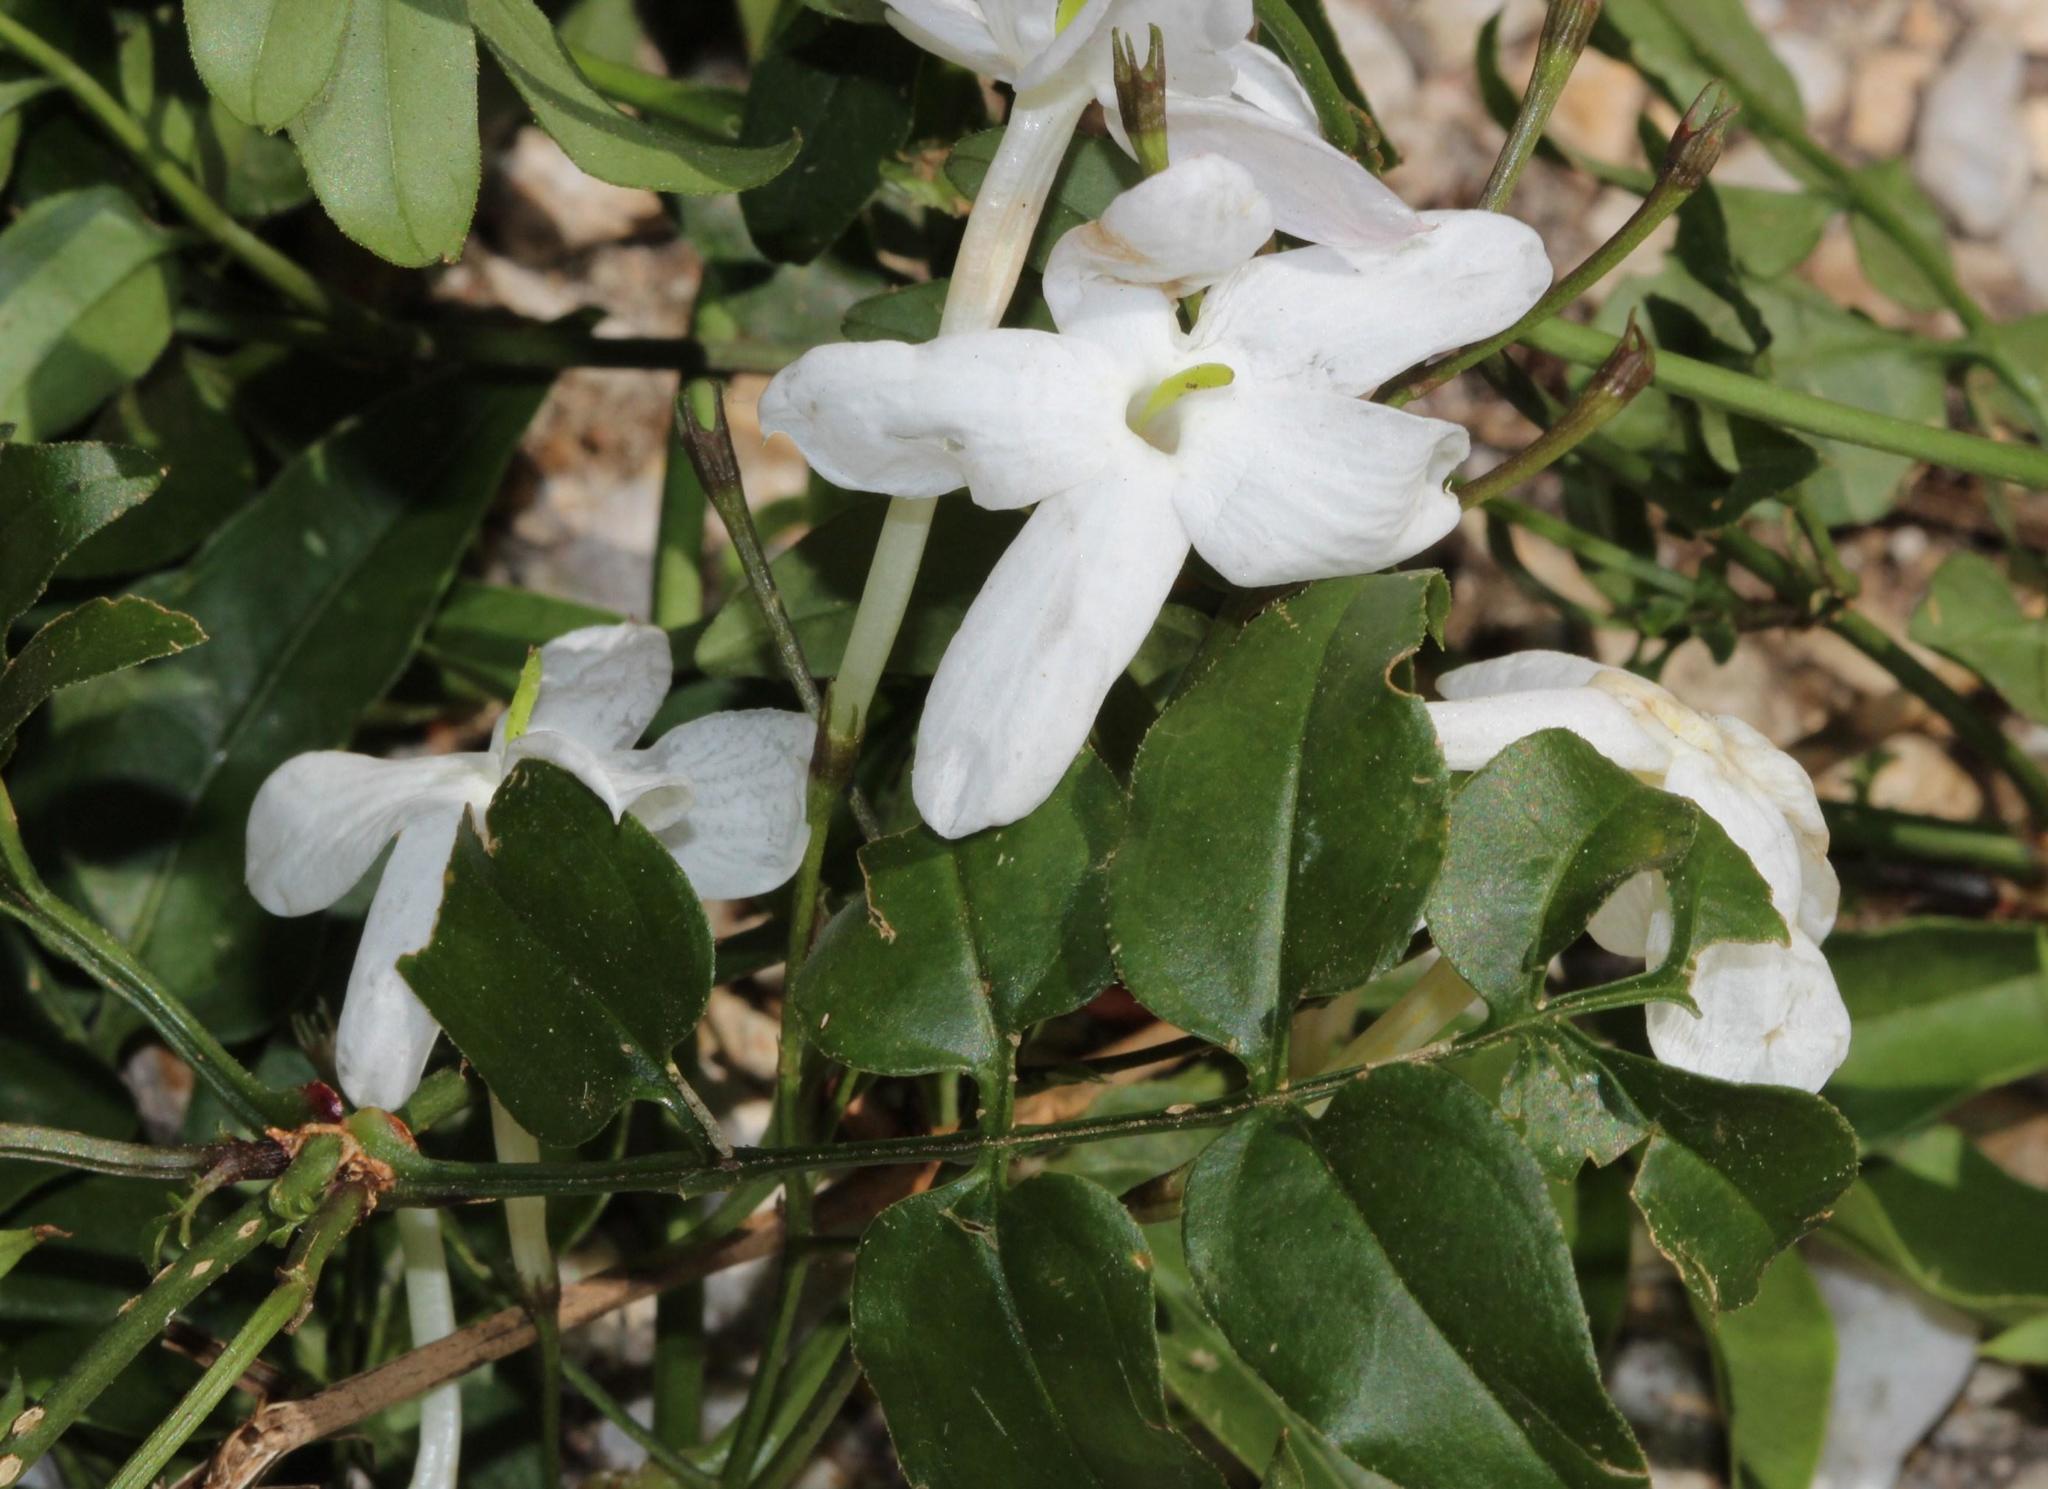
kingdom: Plantae
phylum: Tracheophyta
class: Magnoliopsida
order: Lamiales
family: Oleaceae
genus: Jasminum
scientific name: Jasminum polyanthum
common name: Pink jasmine
